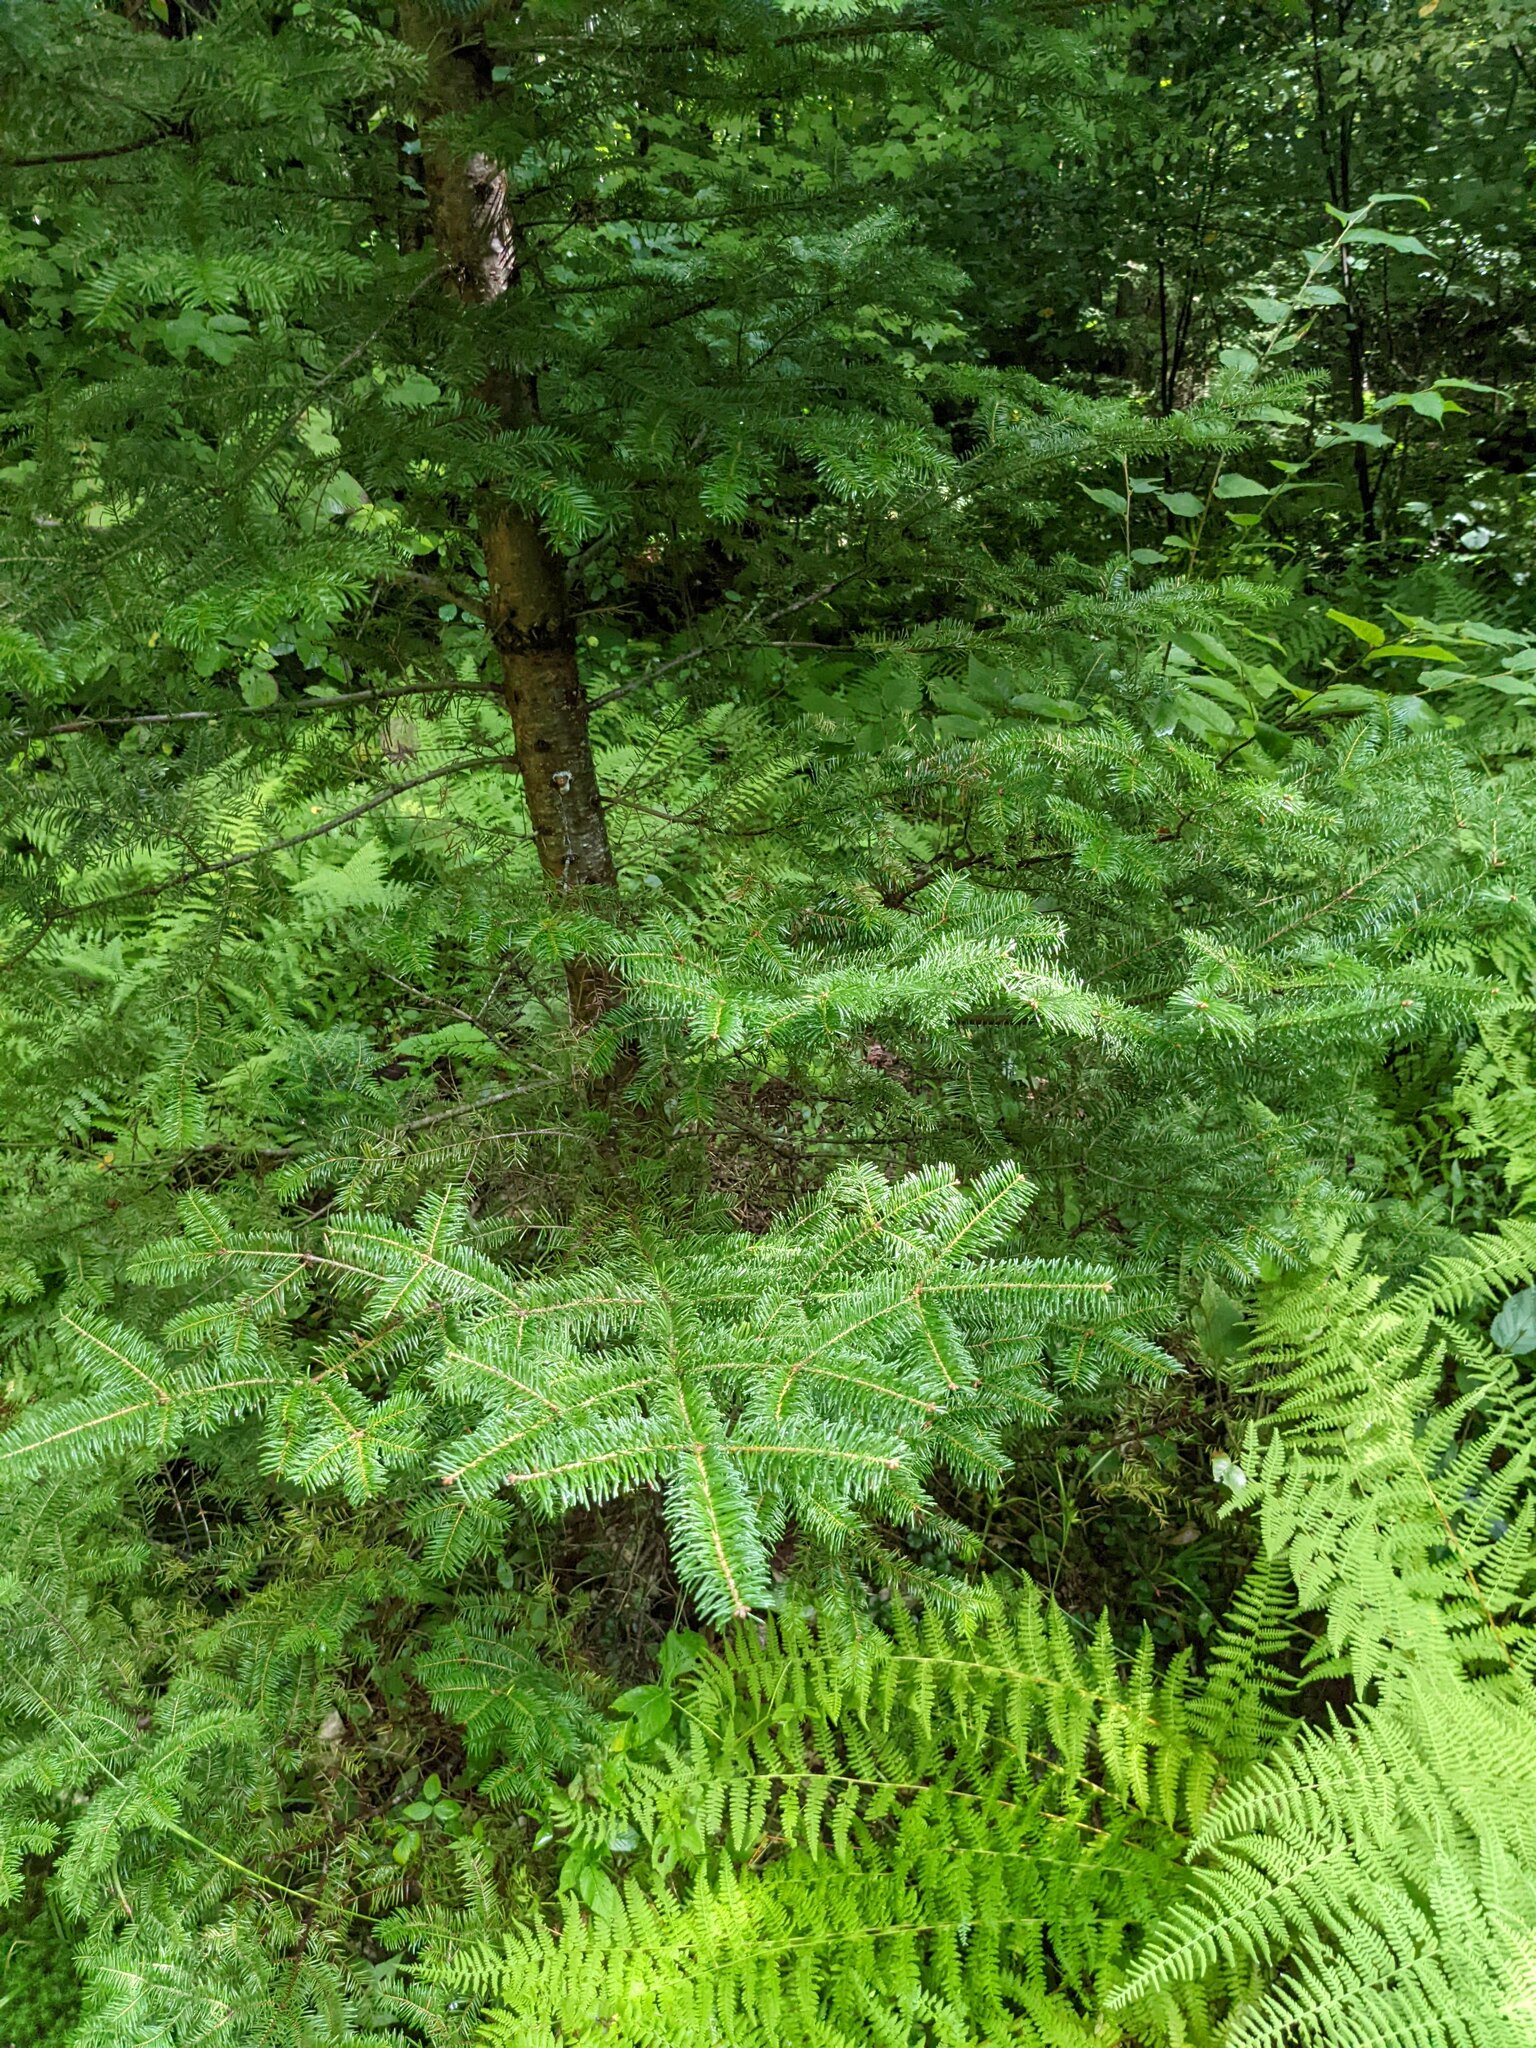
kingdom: Plantae
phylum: Tracheophyta
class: Pinopsida
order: Pinales
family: Pinaceae
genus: Abies
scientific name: Abies balsamea
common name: Balsam fir
